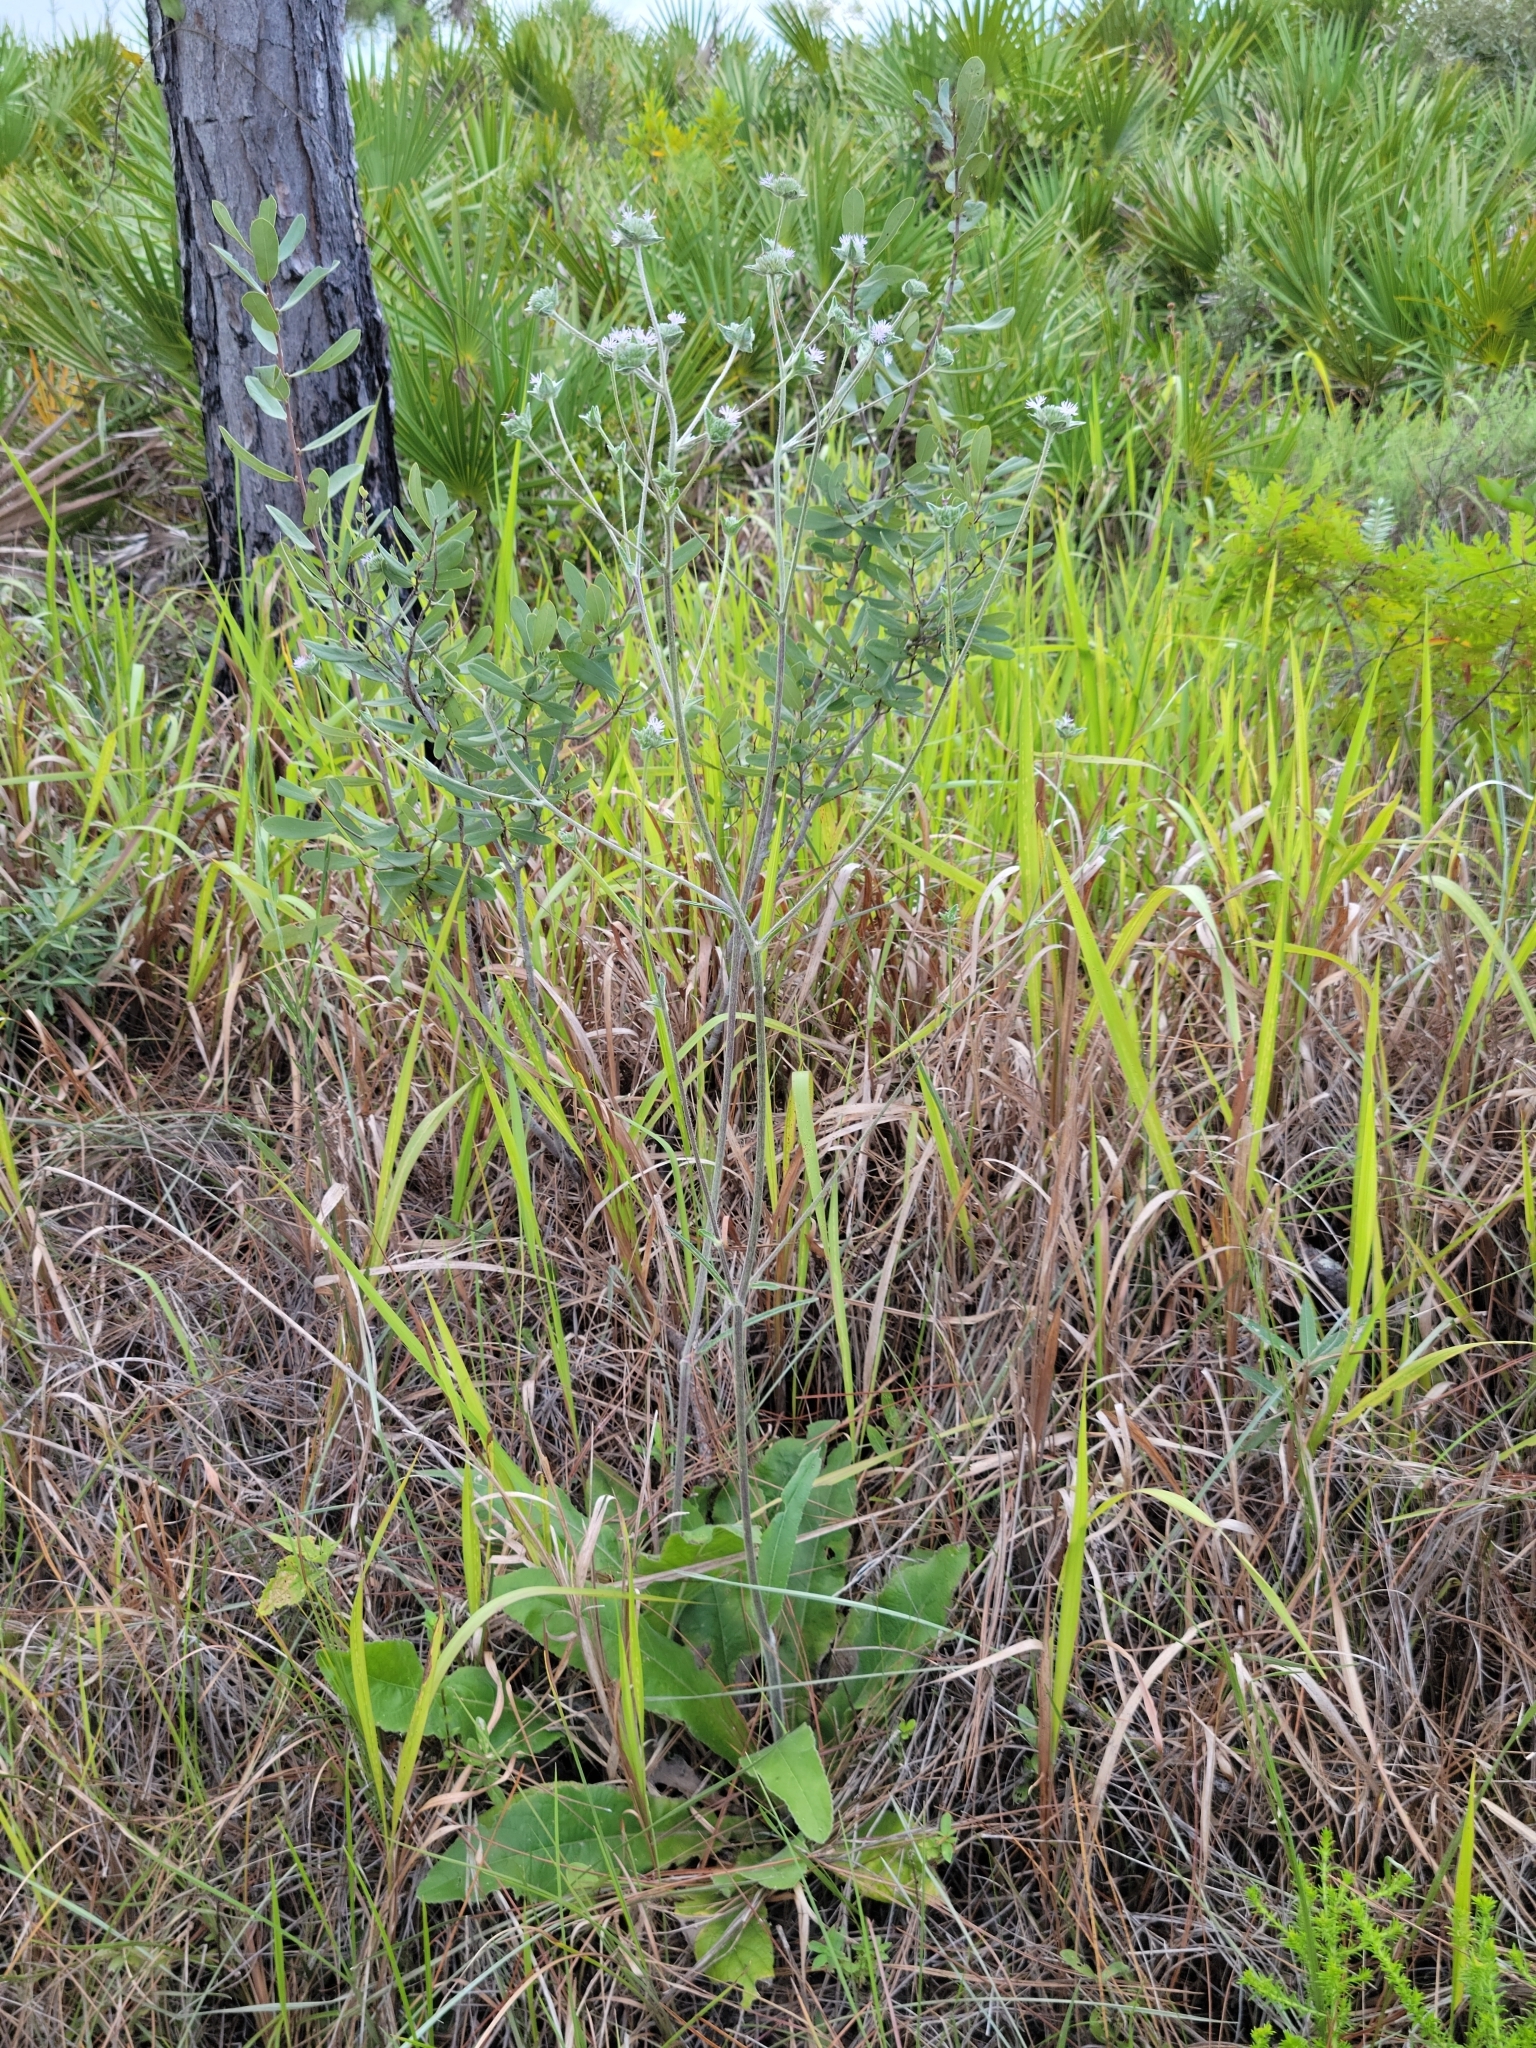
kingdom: Plantae
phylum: Tracheophyta
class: Magnoliopsida
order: Asterales
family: Asteraceae
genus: Elephantopus
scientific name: Elephantopus elatus
